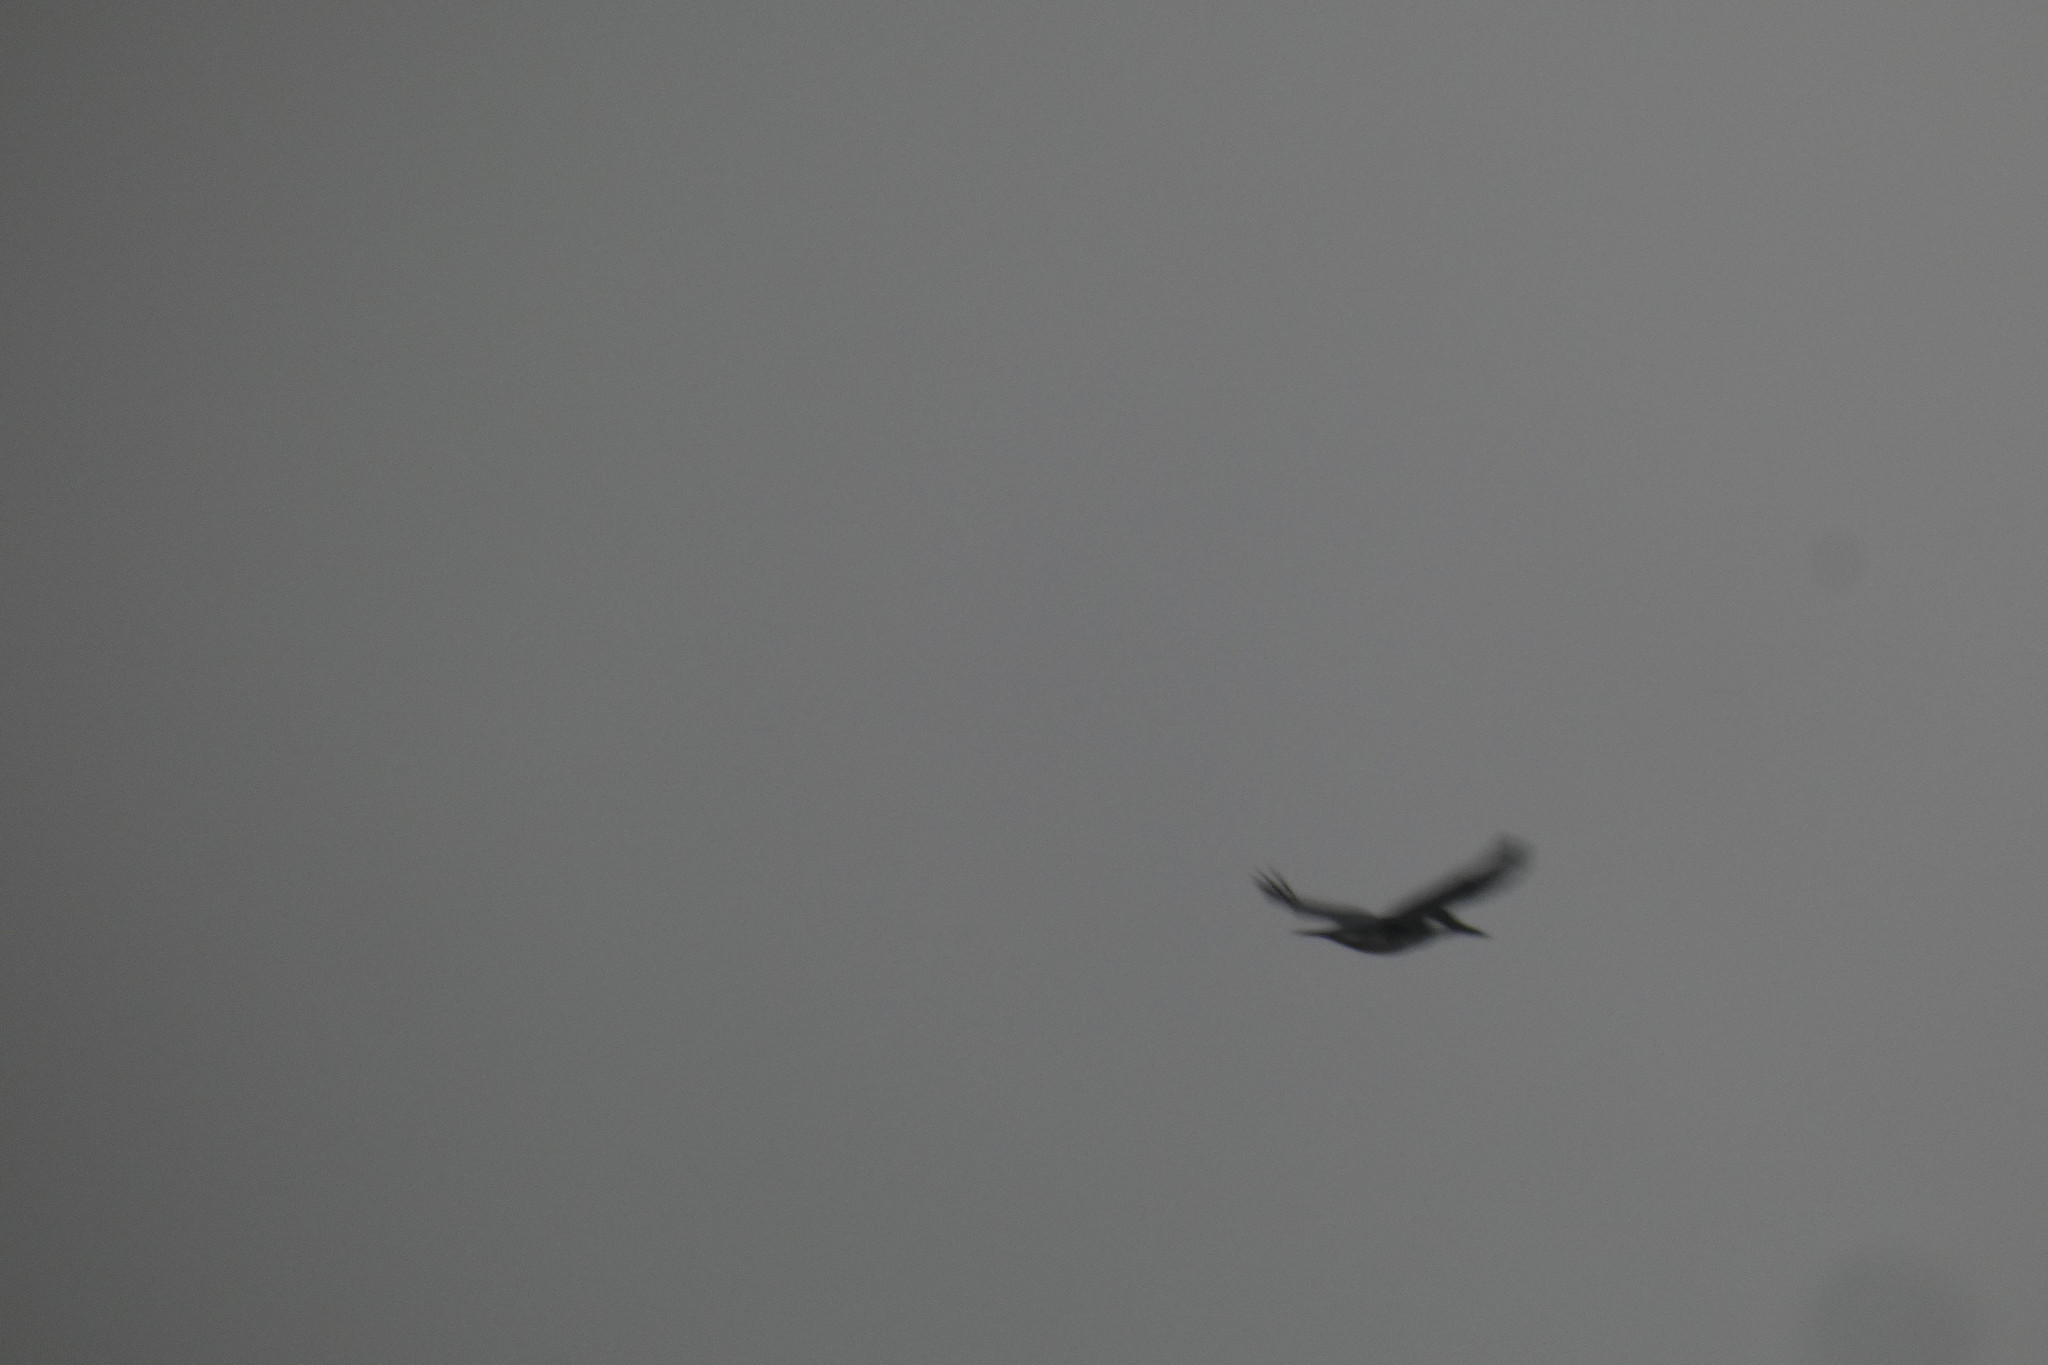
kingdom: Animalia
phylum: Chordata
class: Aves
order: Coraciiformes
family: Alcedinidae
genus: Megaceryle
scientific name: Megaceryle alcyon
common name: Belted kingfisher
